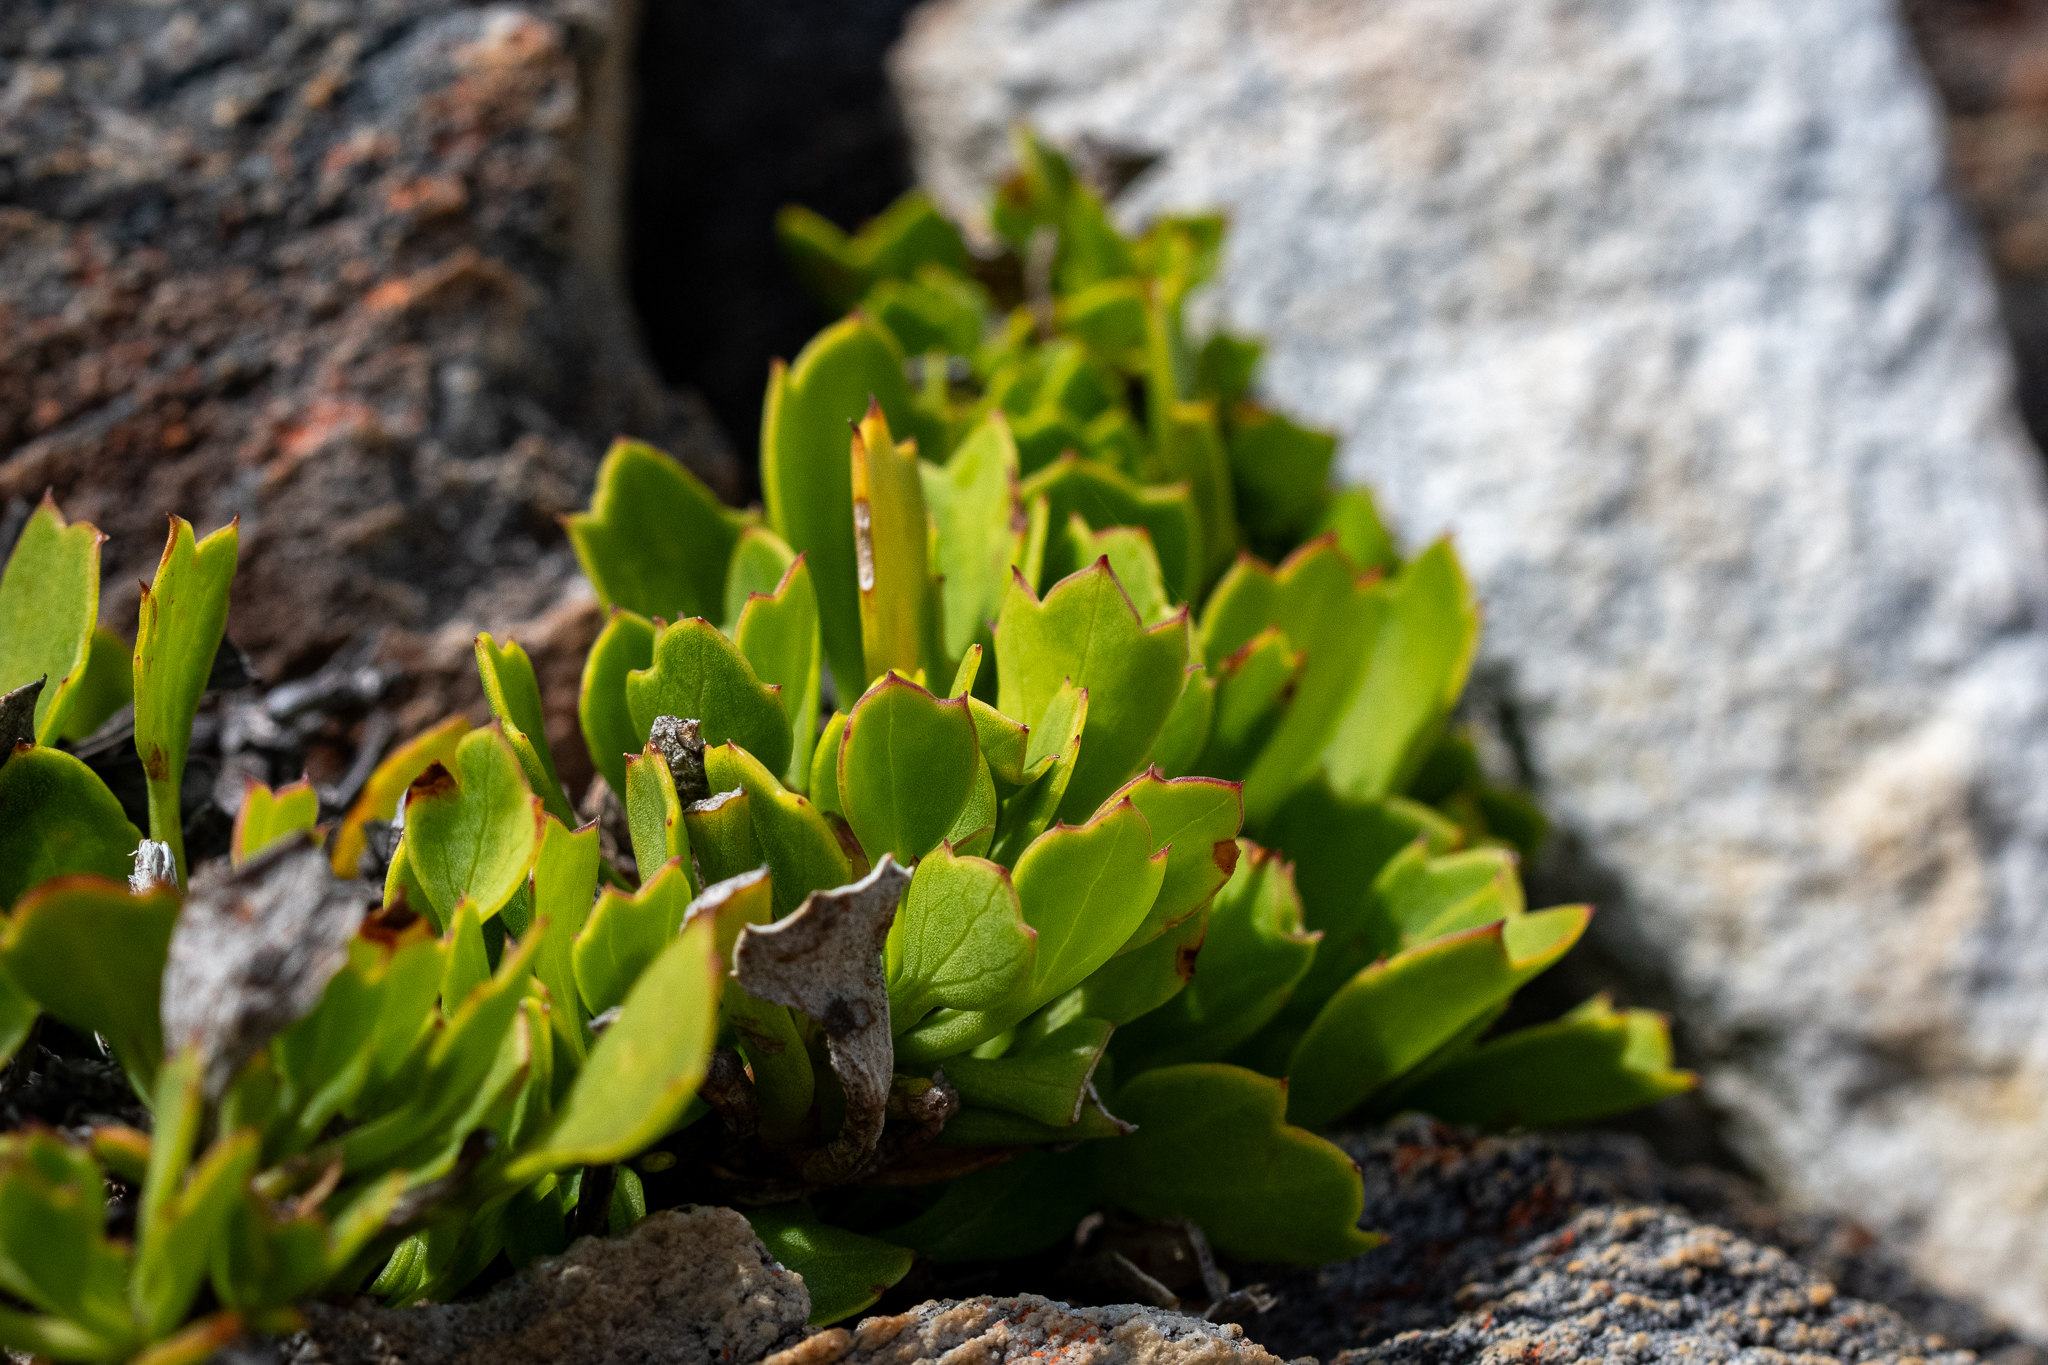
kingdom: Plantae
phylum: Tracheophyta
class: Magnoliopsida
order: Apiales
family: Apiaceae
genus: Centella
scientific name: Centella triloba
